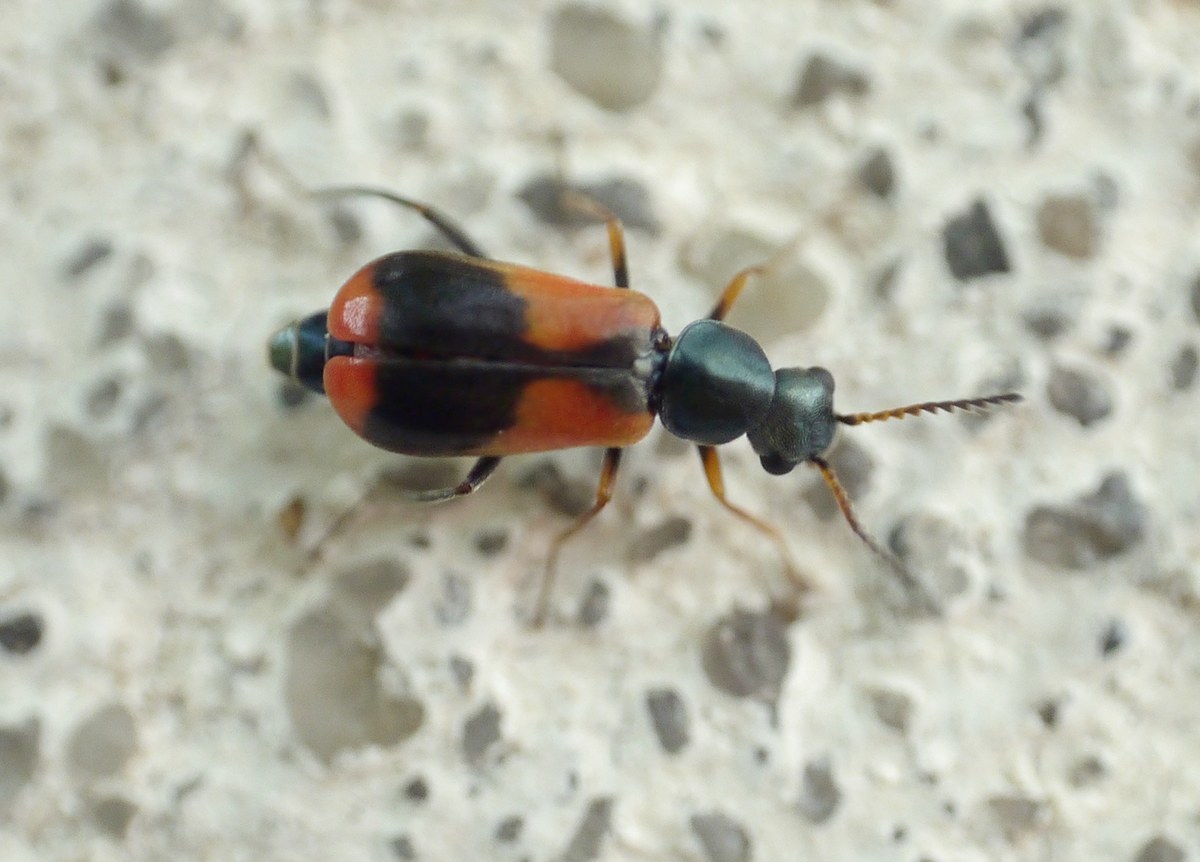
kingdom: Animalia
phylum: Arthropoda
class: Insecta
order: Coleoptera
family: Melyridae
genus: Anthocomus
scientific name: Anthocomus equestris
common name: Black-banded soft-winged flower beetle
